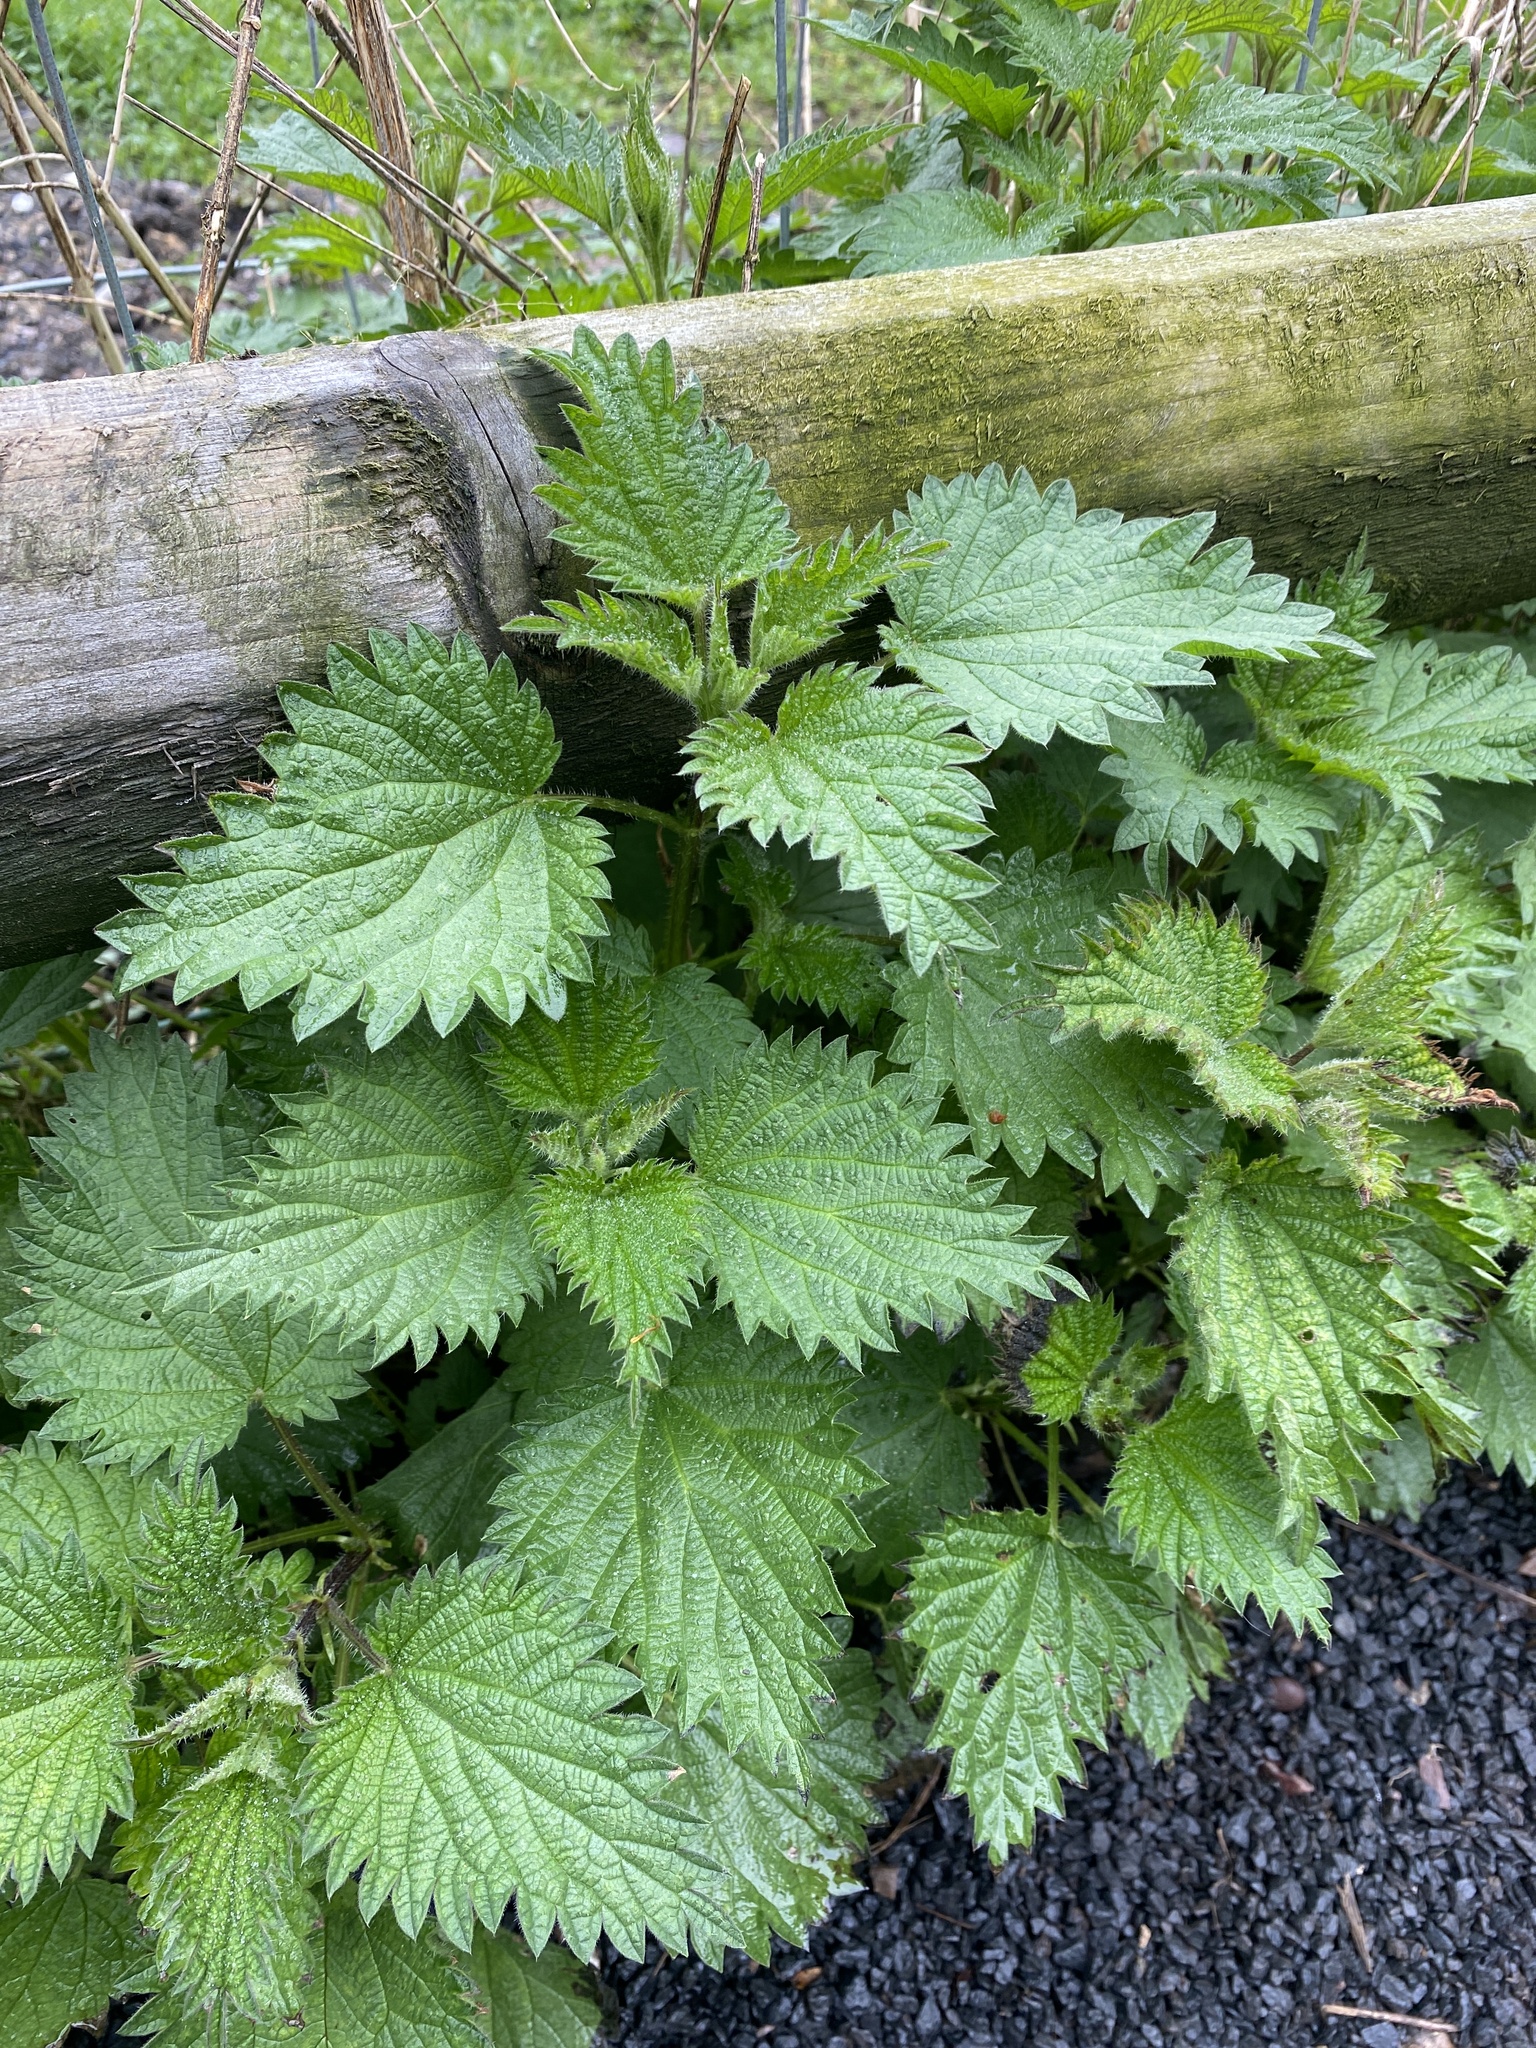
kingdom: Plantae
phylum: Tracheophyta
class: Magnoliopsida
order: Rosales
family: Urticaceae
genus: Urtica
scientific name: Urtica dioica
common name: Common nettle
